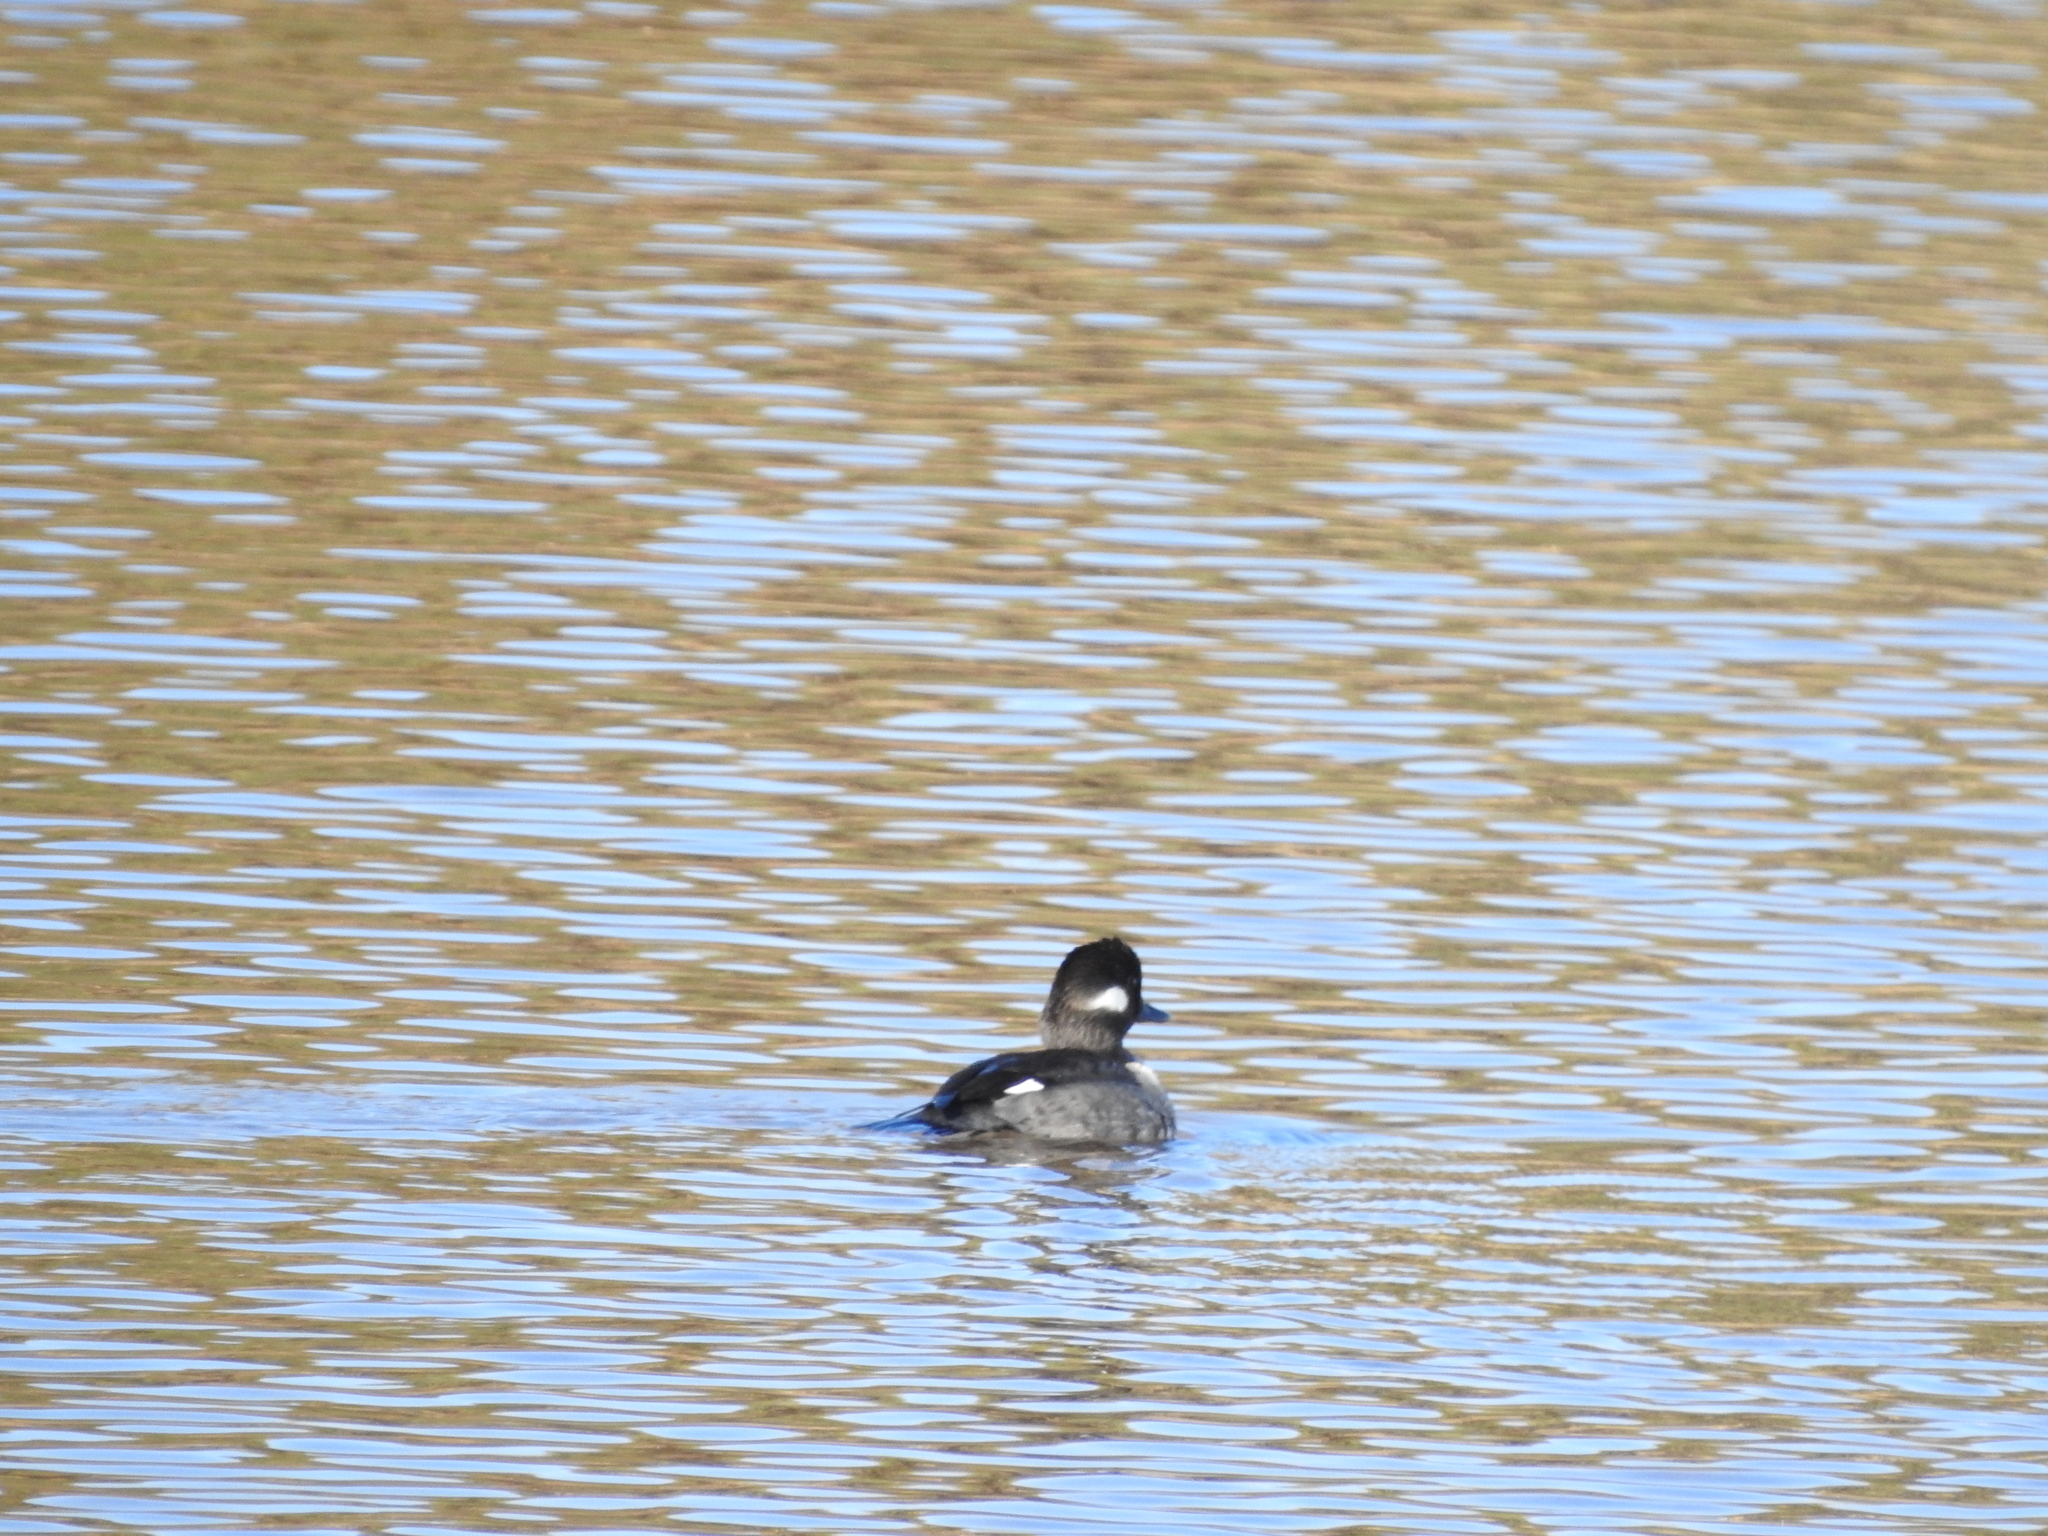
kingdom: Animalia
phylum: Chordata
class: Aves
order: Anseriformes
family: Anatidae
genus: Bucephala
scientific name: Bucephala albeola
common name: Bufflehead
